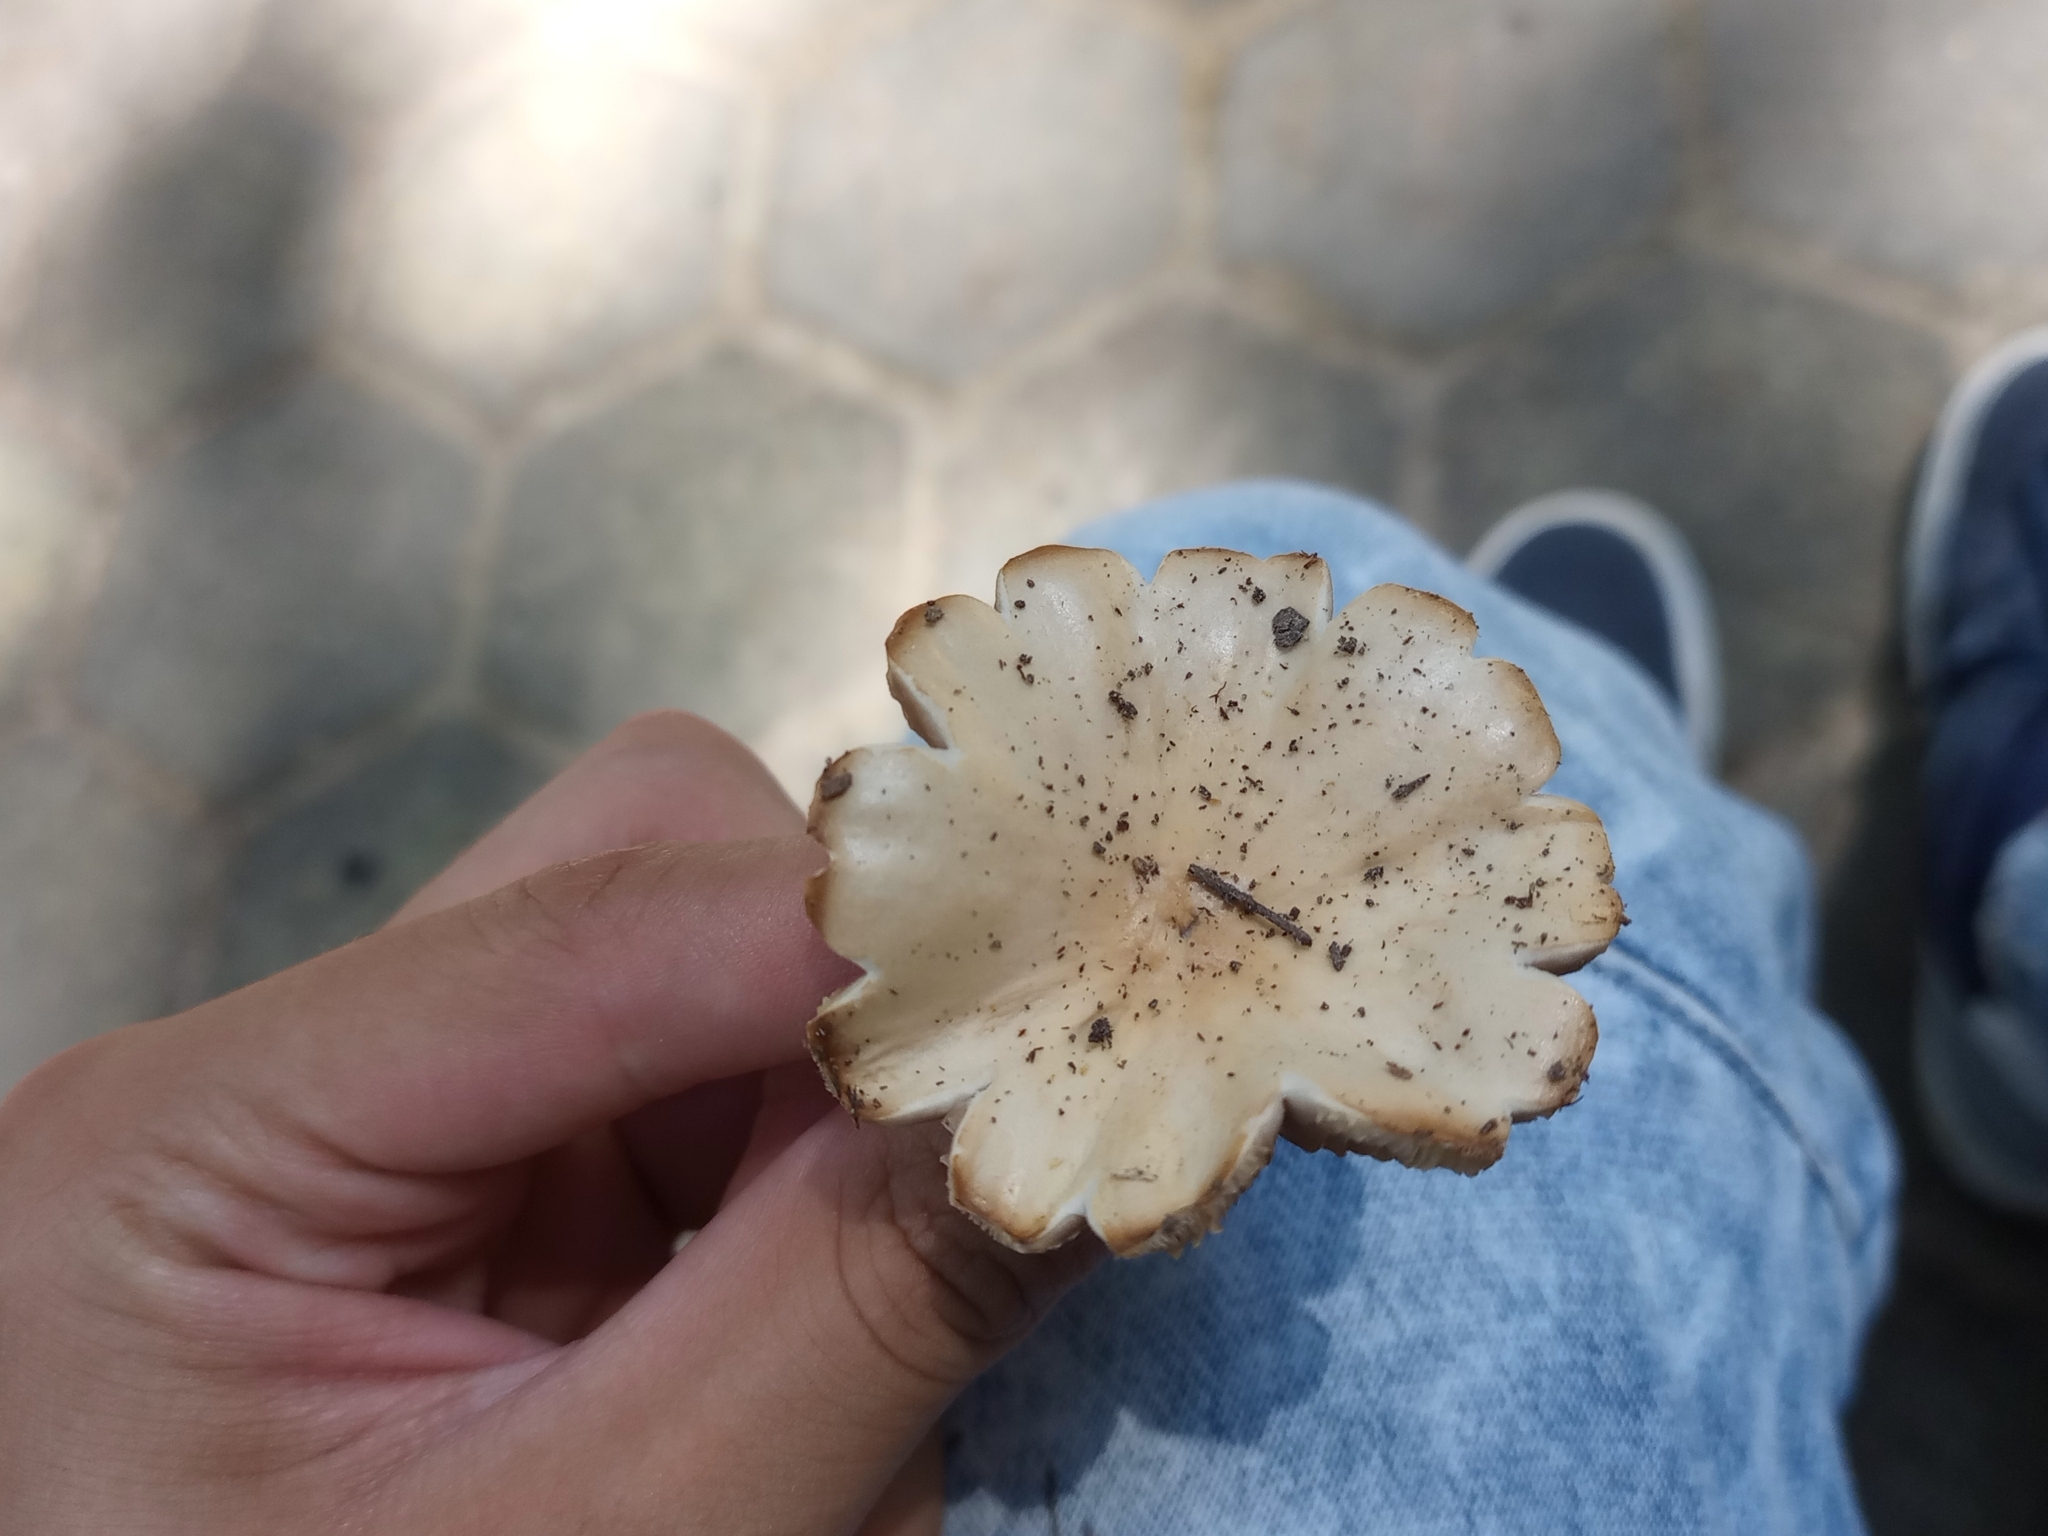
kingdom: Fungi
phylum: Basidiomycota
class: Agaricomycetes
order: Agaricales
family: Psathyrellaceae
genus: Candolleomyces
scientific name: Candolleomyces candolleanus
